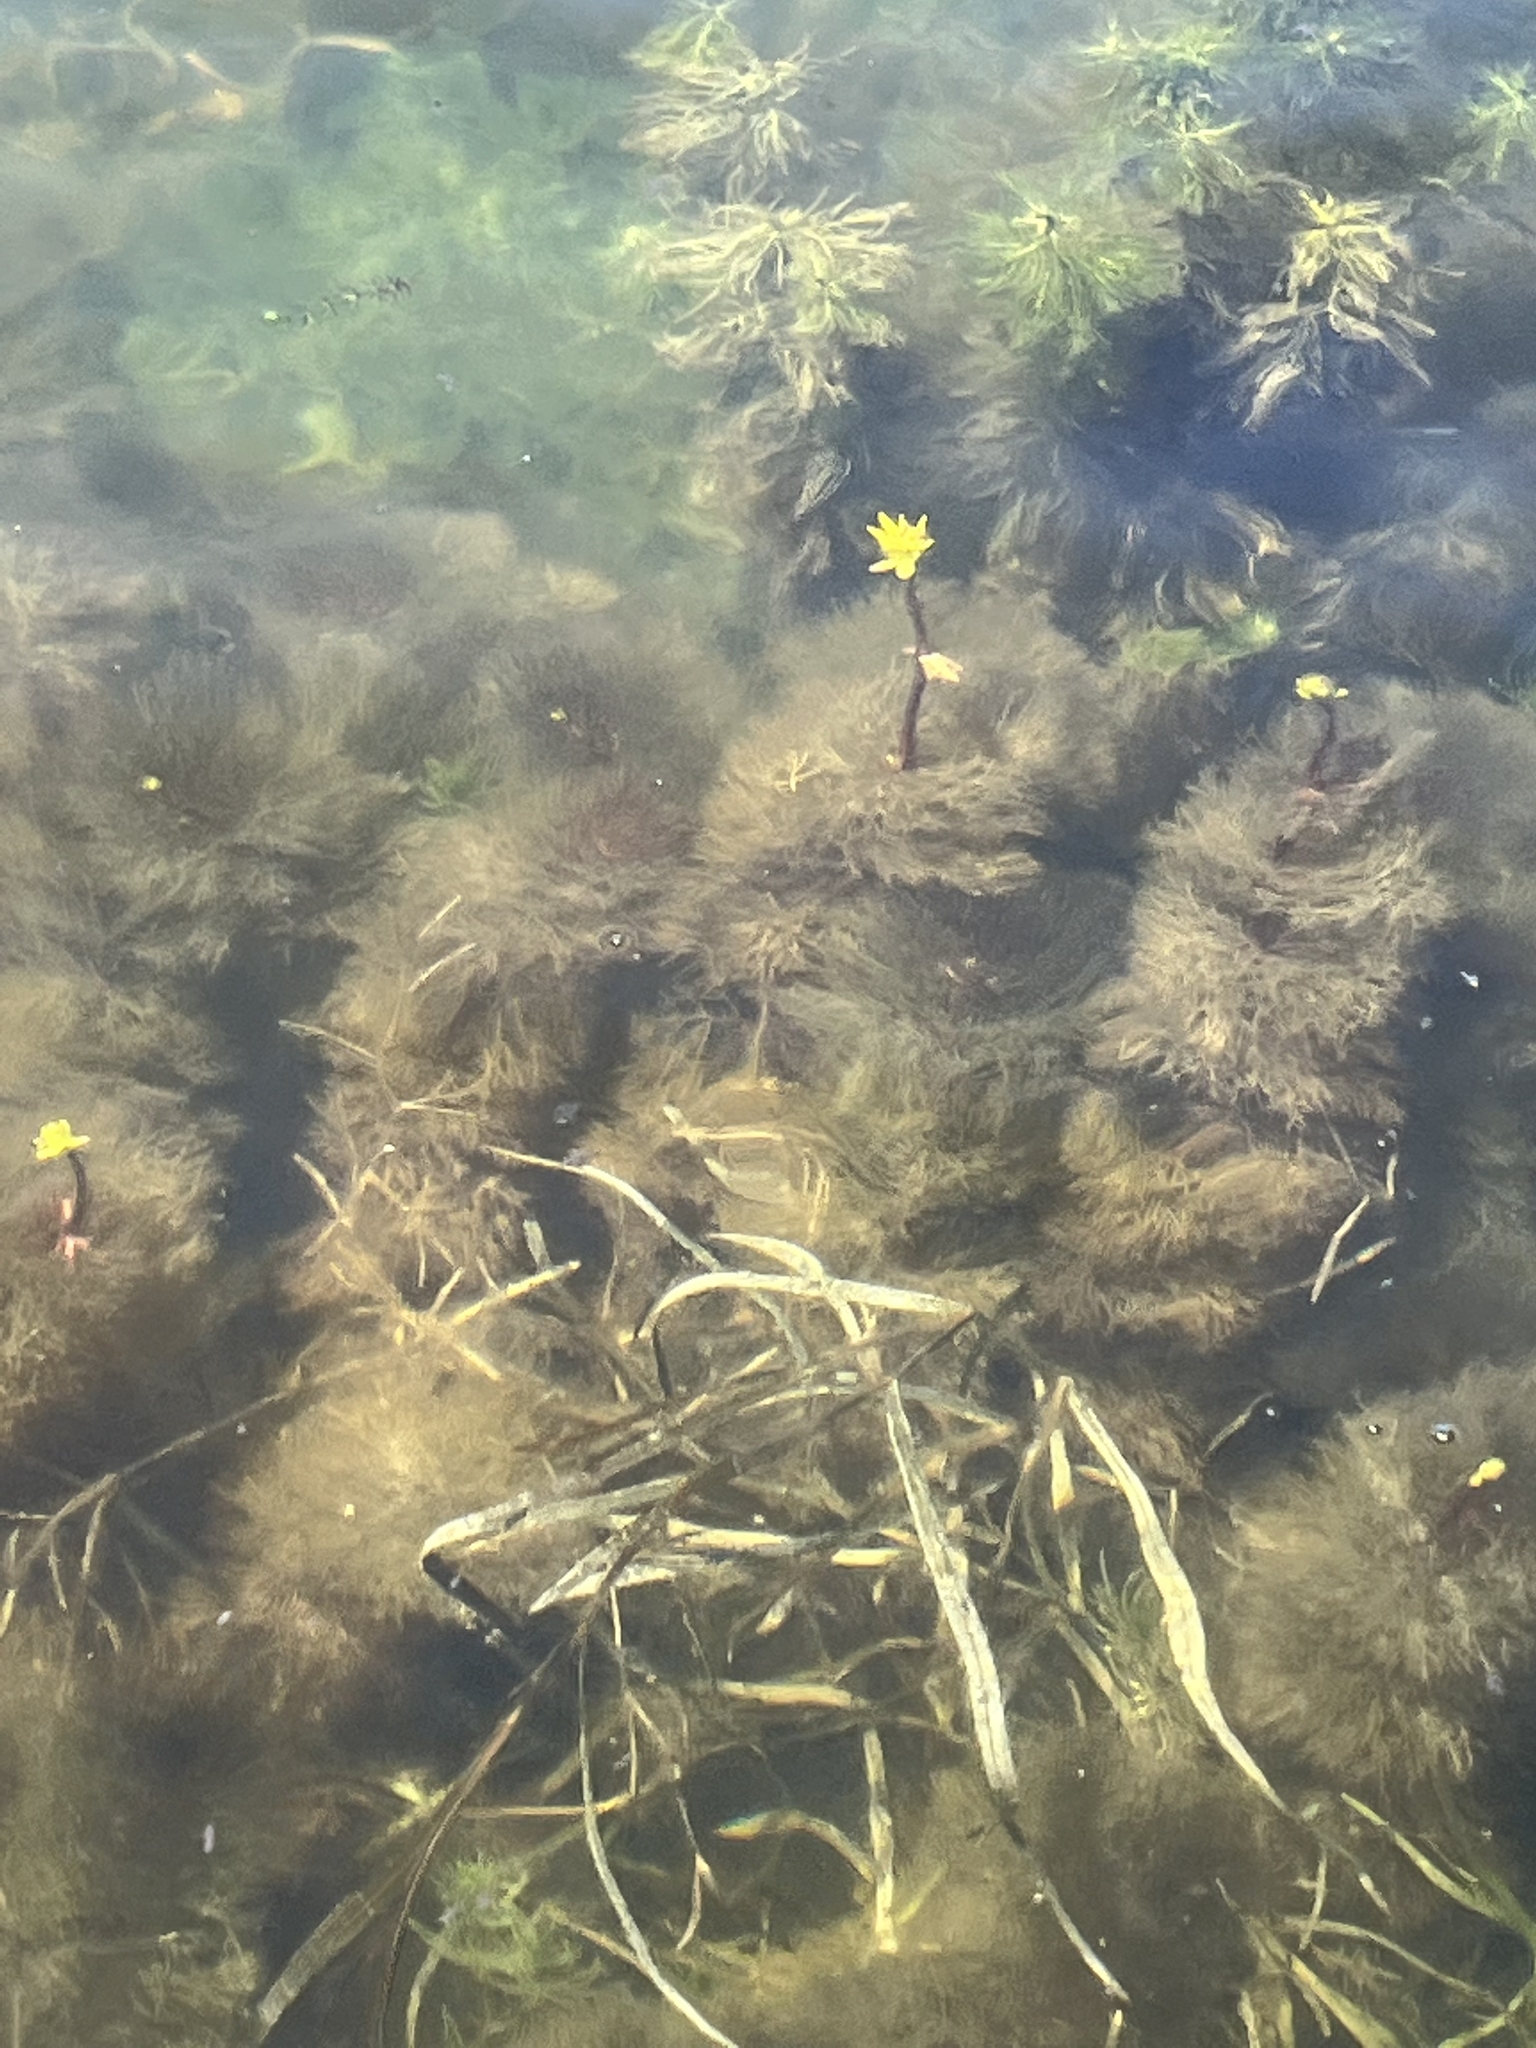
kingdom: Plantae
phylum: Tracheophyta
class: Magnoliopsida
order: Asterales
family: Asteraceae
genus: Bidens
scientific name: Bidens beckii
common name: Beck's beggarticks
